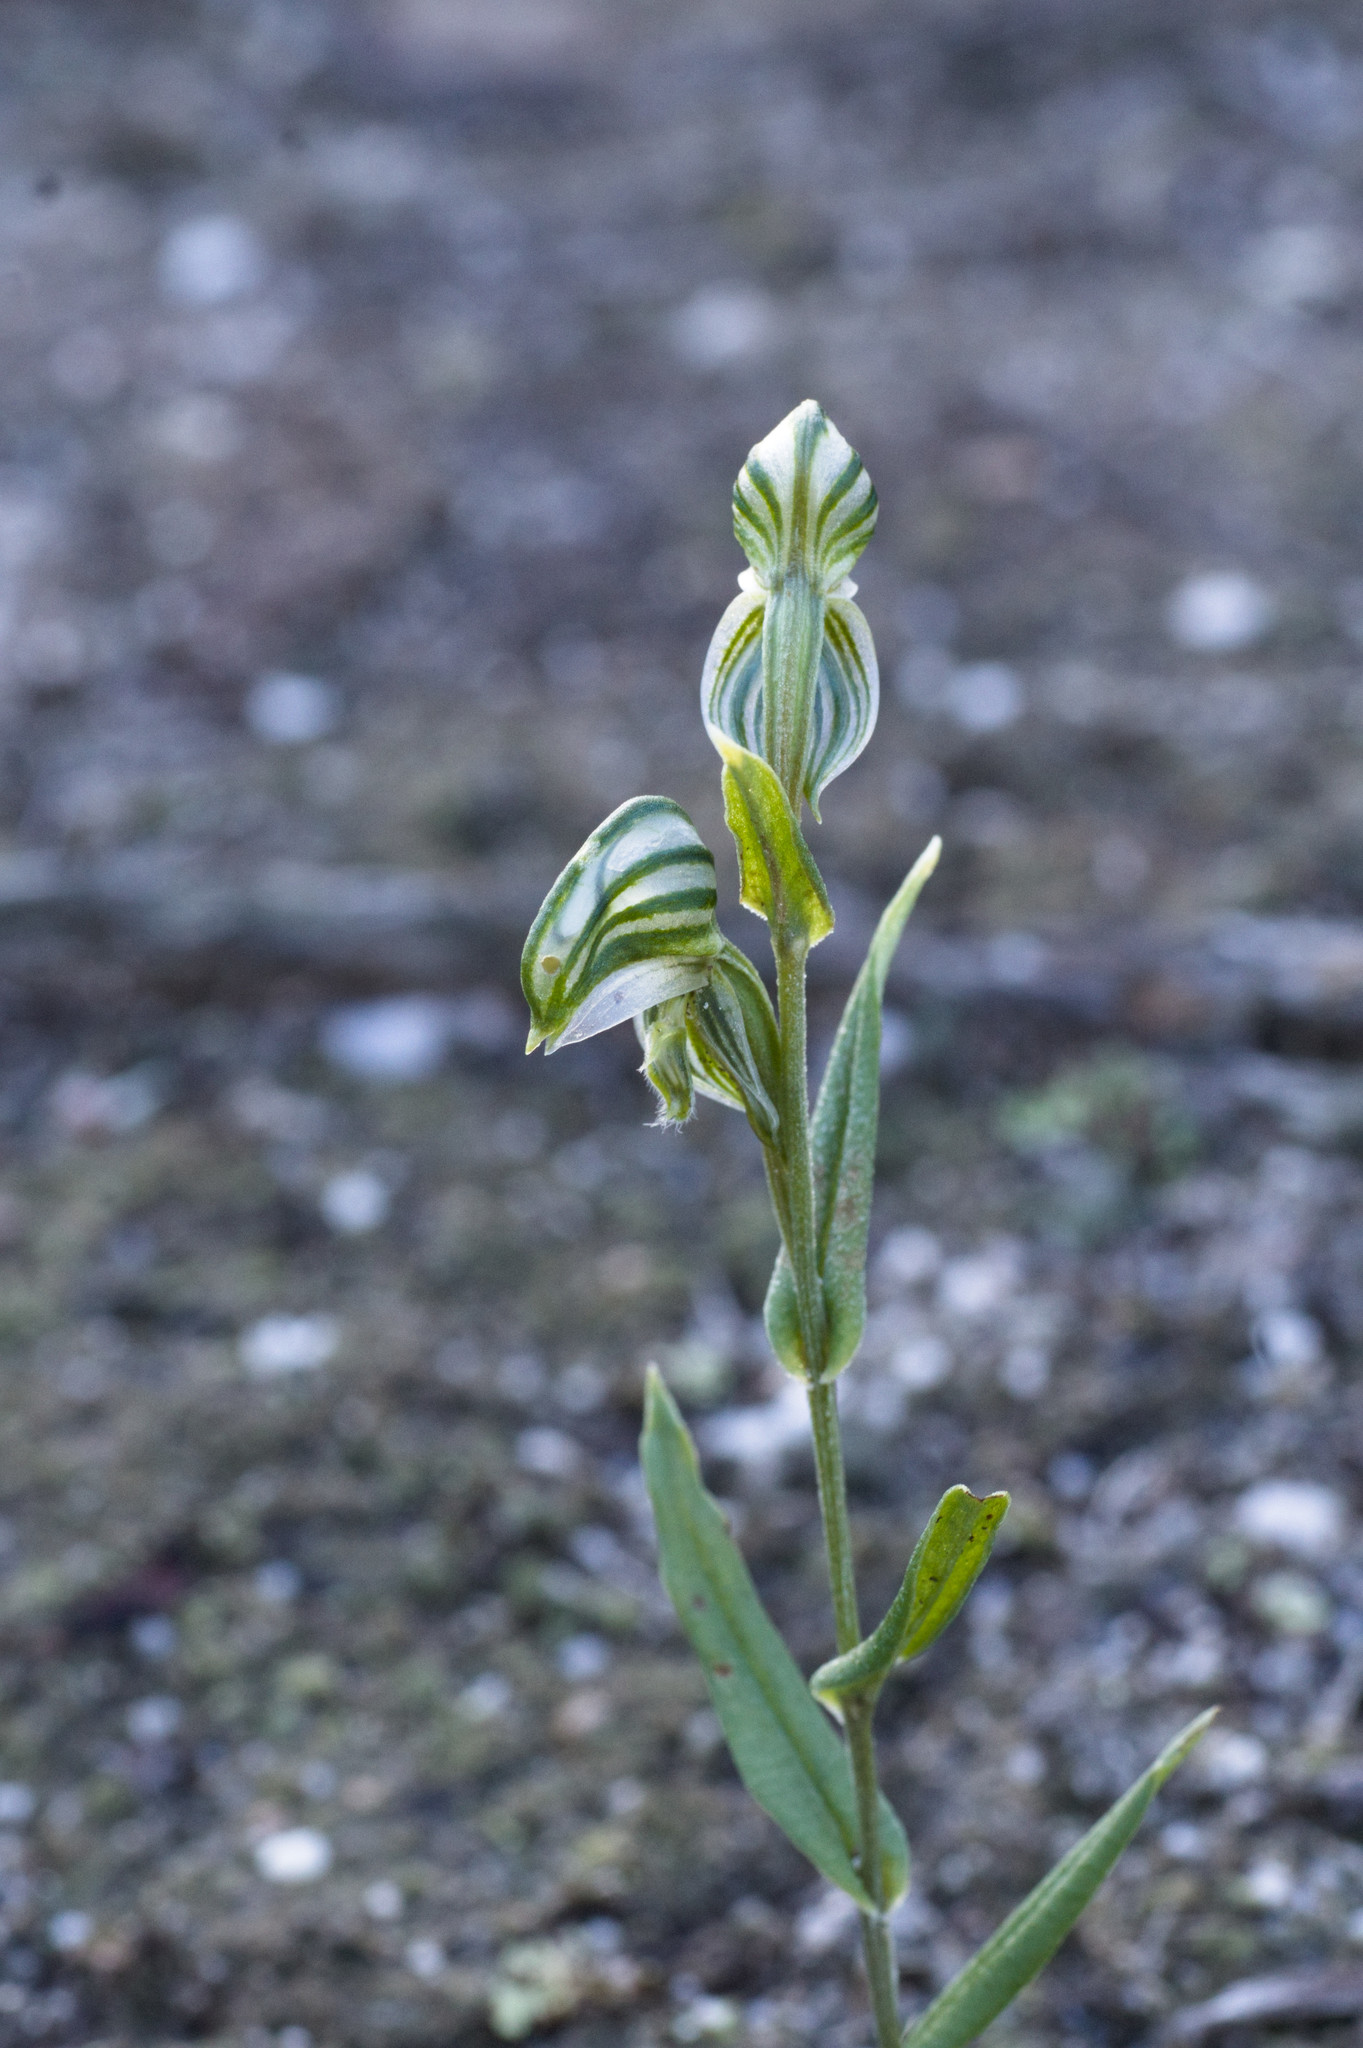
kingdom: Plantae
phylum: Tracheophyta
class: Liliopsida
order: Asparagales
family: Orchidaceae
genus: Pterostylis
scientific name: Pterostylis vittata
